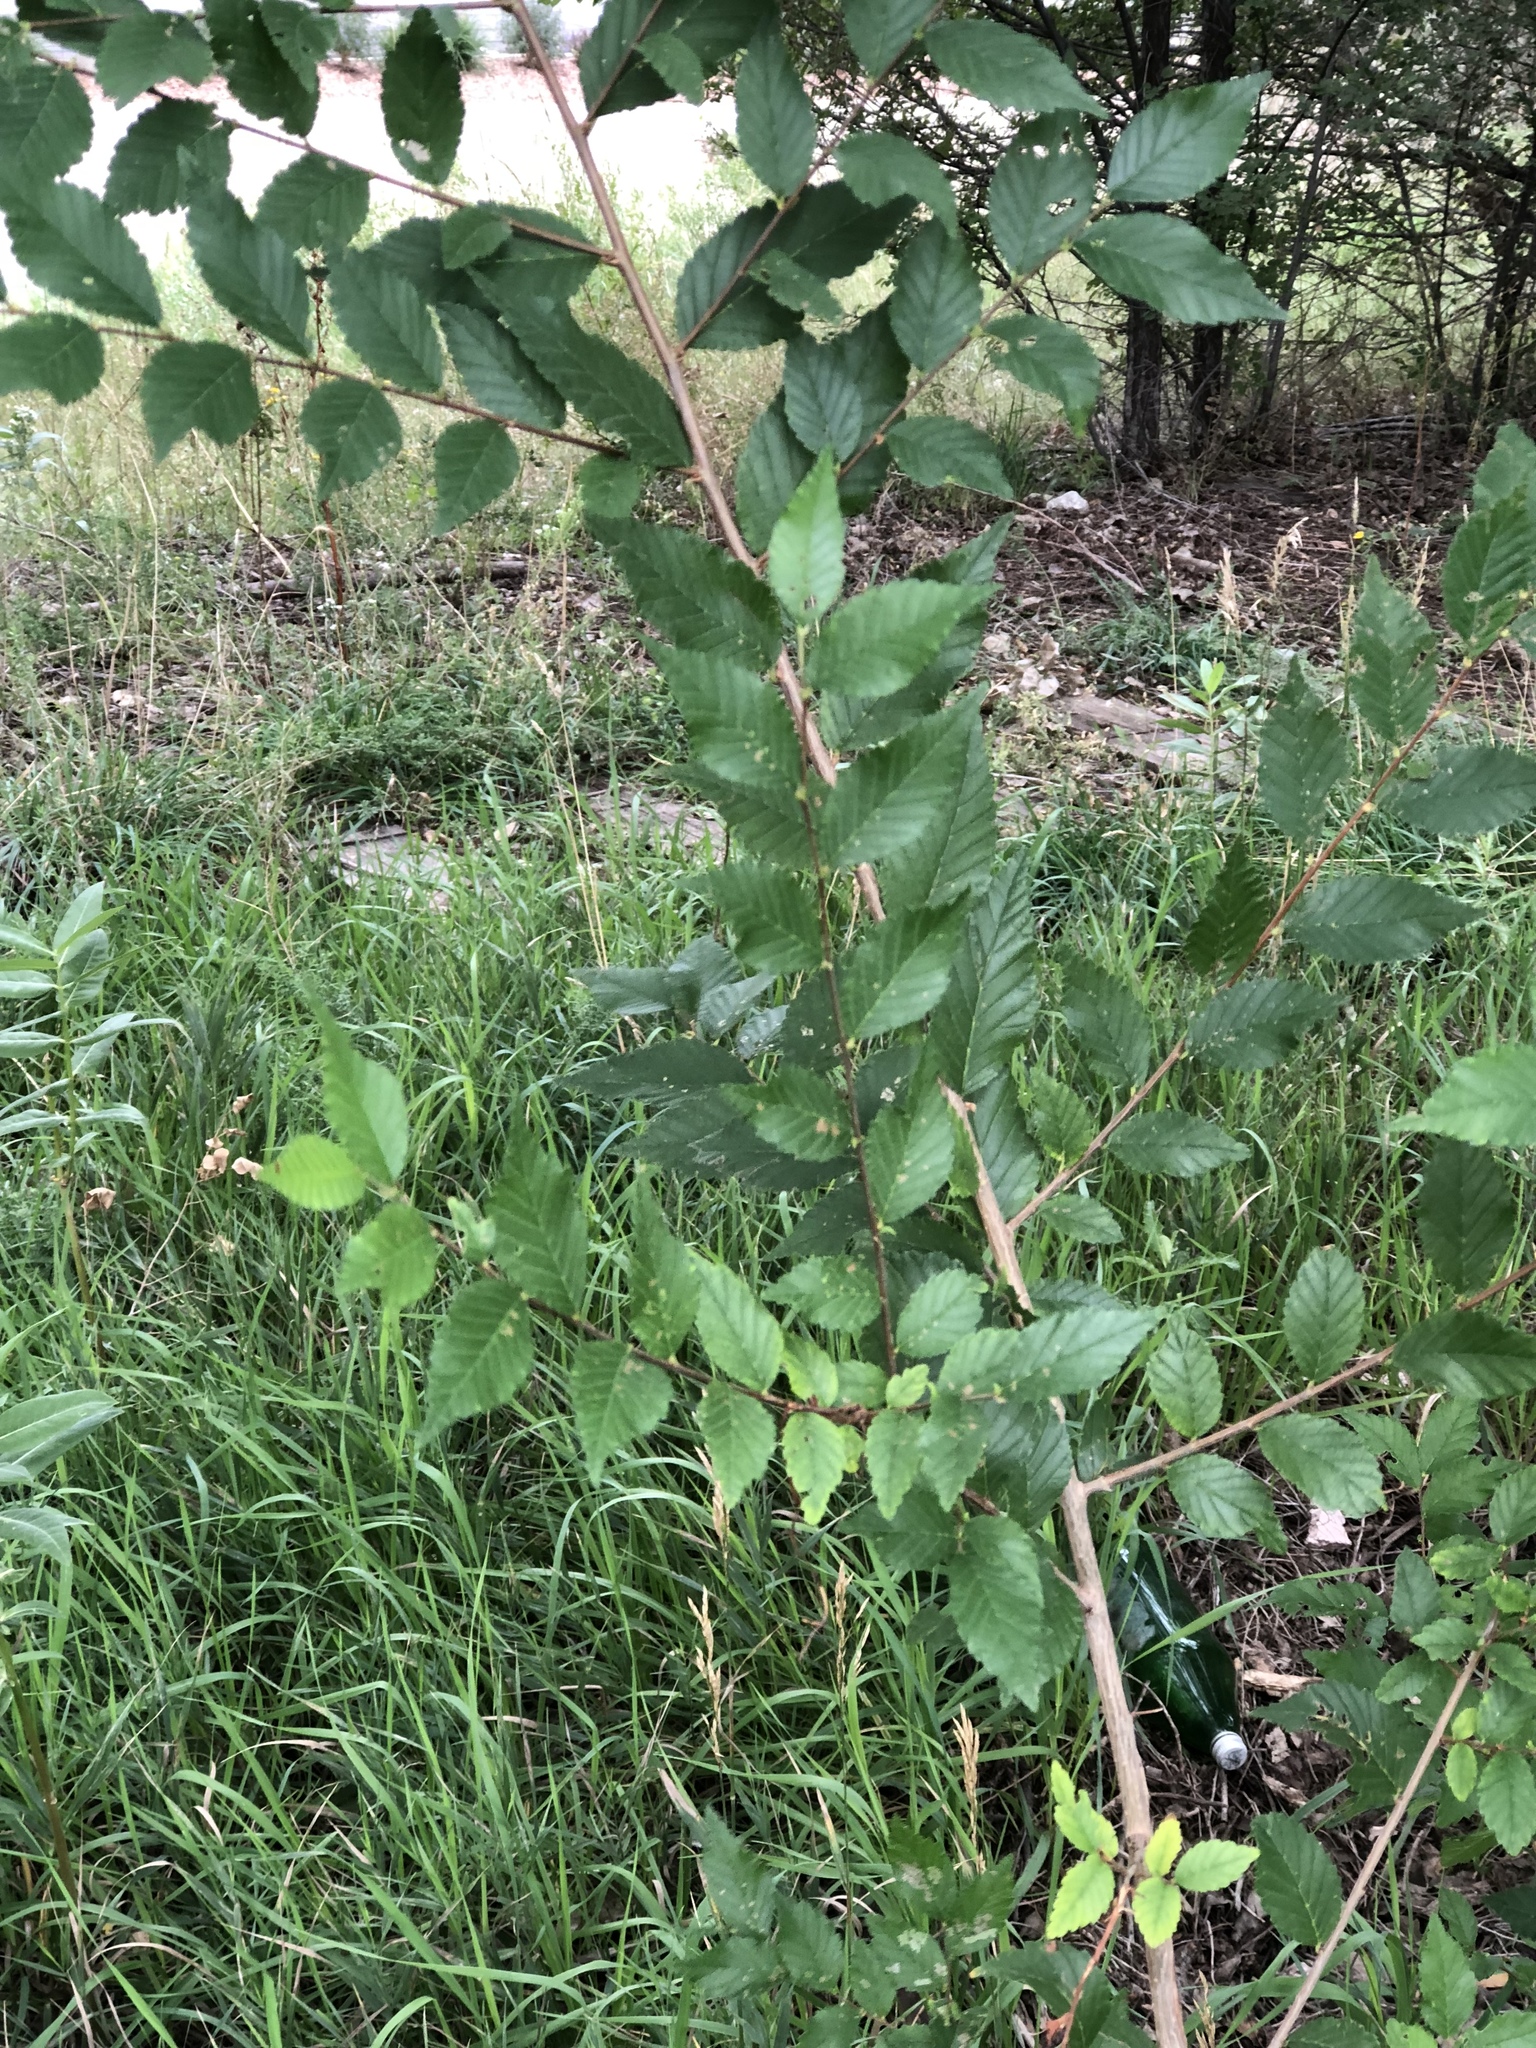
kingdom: Plantae
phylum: Tracheophyta
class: Magnoliopsida
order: Rosales
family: Ulmaceae
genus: Ulmus
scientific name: Ulmus pumila
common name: Siberian elm
